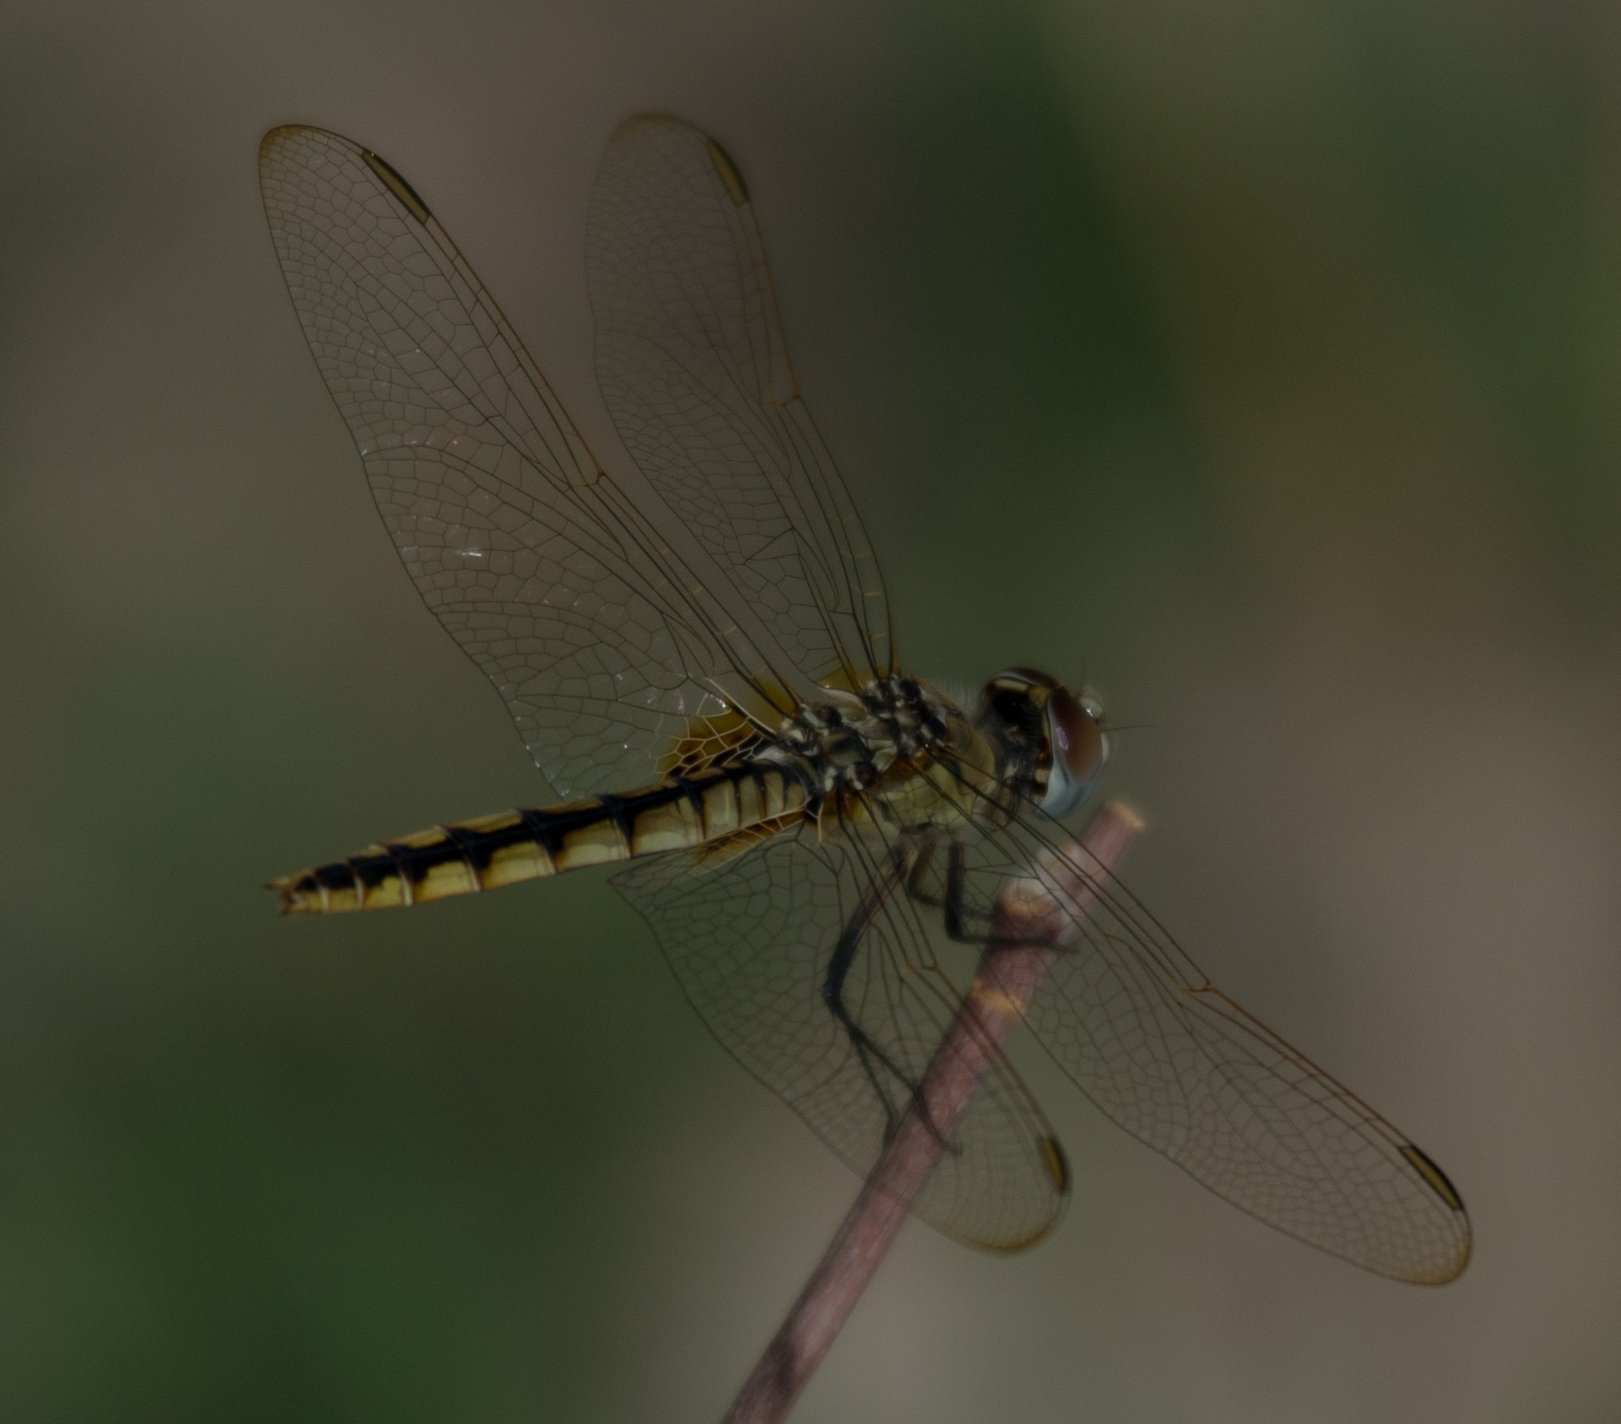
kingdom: Animalia
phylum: Arthropoda
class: Insecta
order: Odonata
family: Libellulidae
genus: Urothemis
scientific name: Urothemis edwardsii
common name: Blue basker
